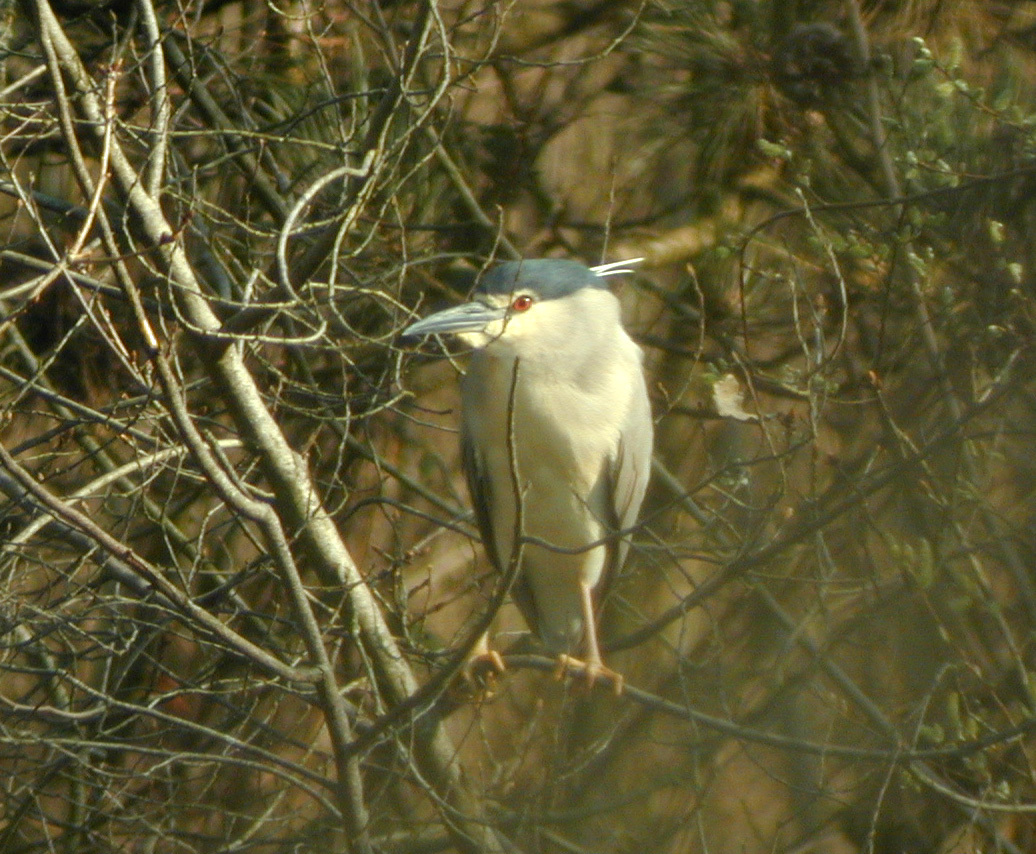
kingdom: Animalia
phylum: Chordata
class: Aves
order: Pelecaniformes
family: Ardeidae
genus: Nycticorax
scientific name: Nycticorax nycticorax
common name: Black-crowned night heron
